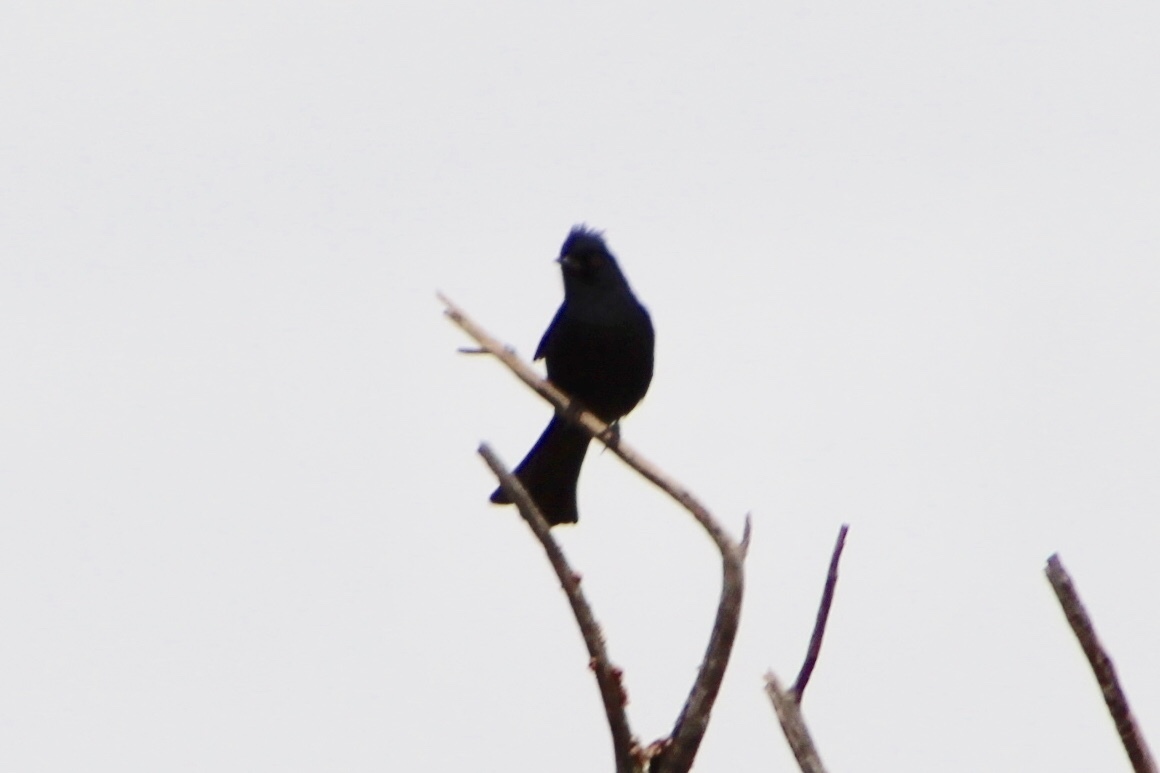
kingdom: Animalia
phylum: Chordata
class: Aves
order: Passeriformes
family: Ptilogonatidae
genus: Phainopepla
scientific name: Phainopepla nitens
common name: Phainopepla
